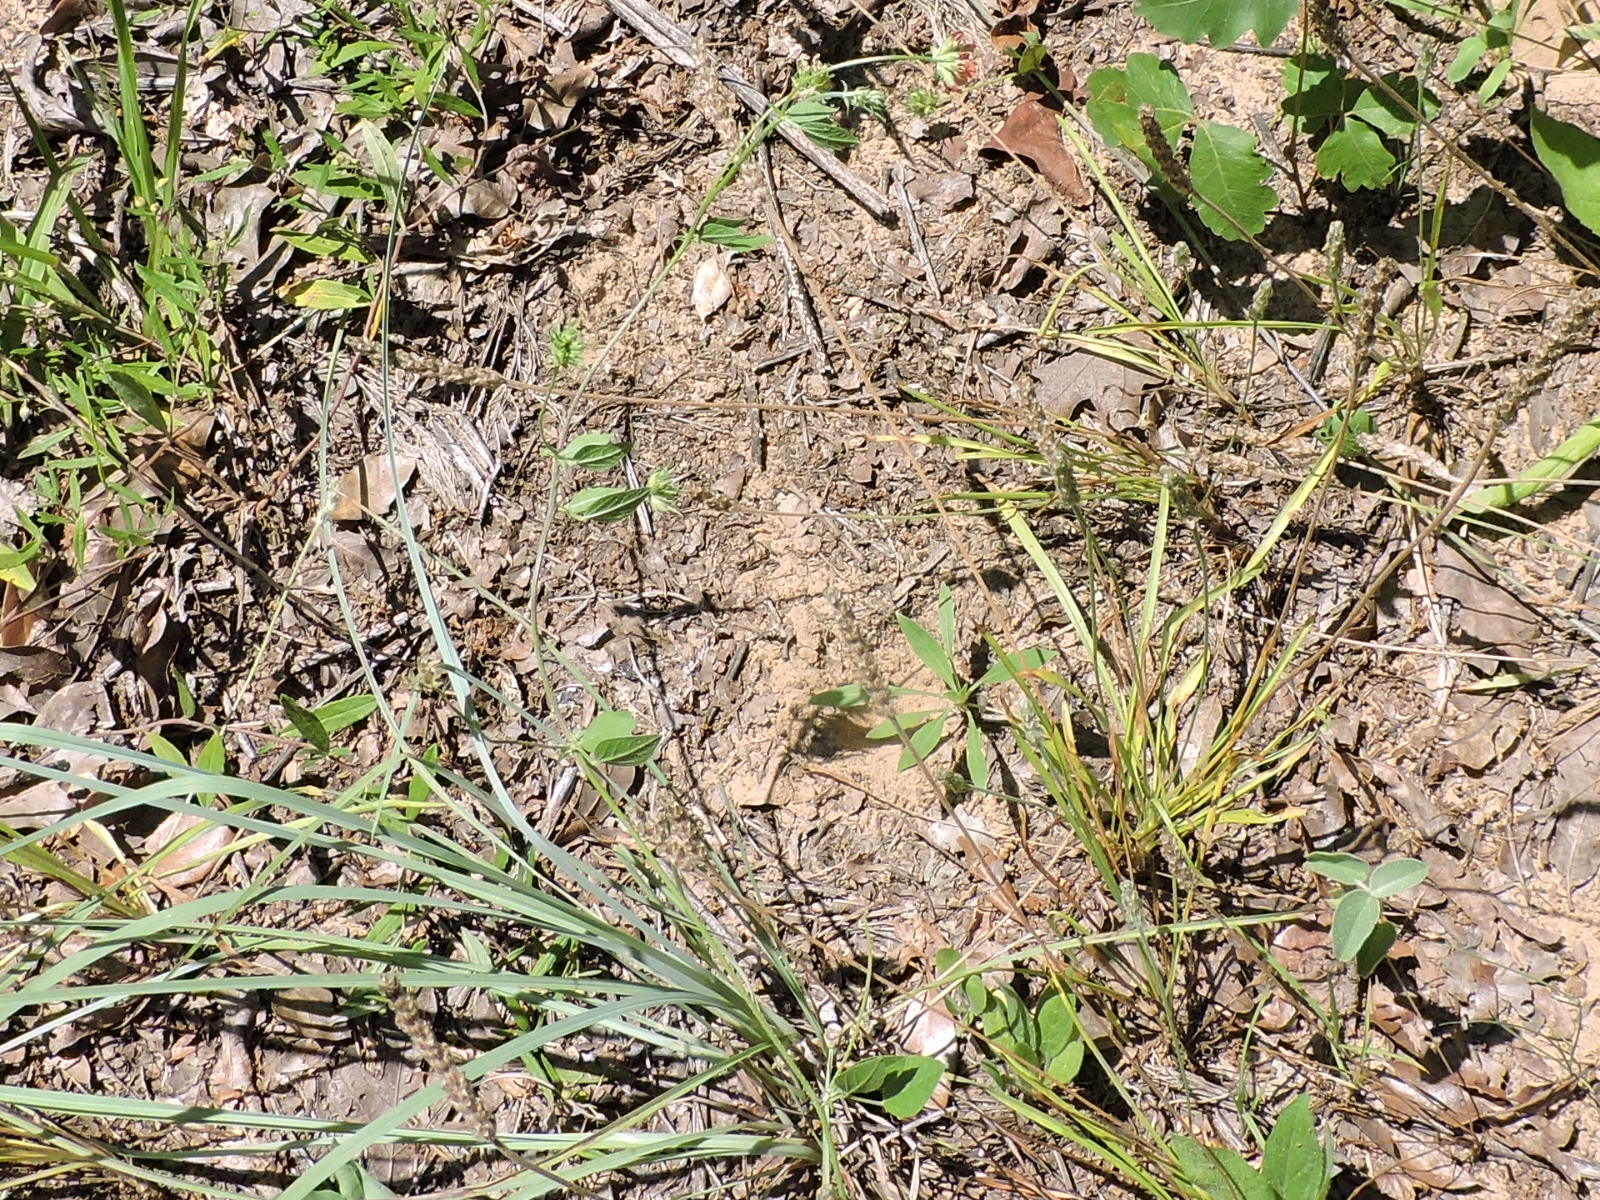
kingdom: Plantae
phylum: Tracheophyta
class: Magnoliopsida
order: Fabales
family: Fabaceae
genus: Pediomelum
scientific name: Pediomelum rhombifolium
